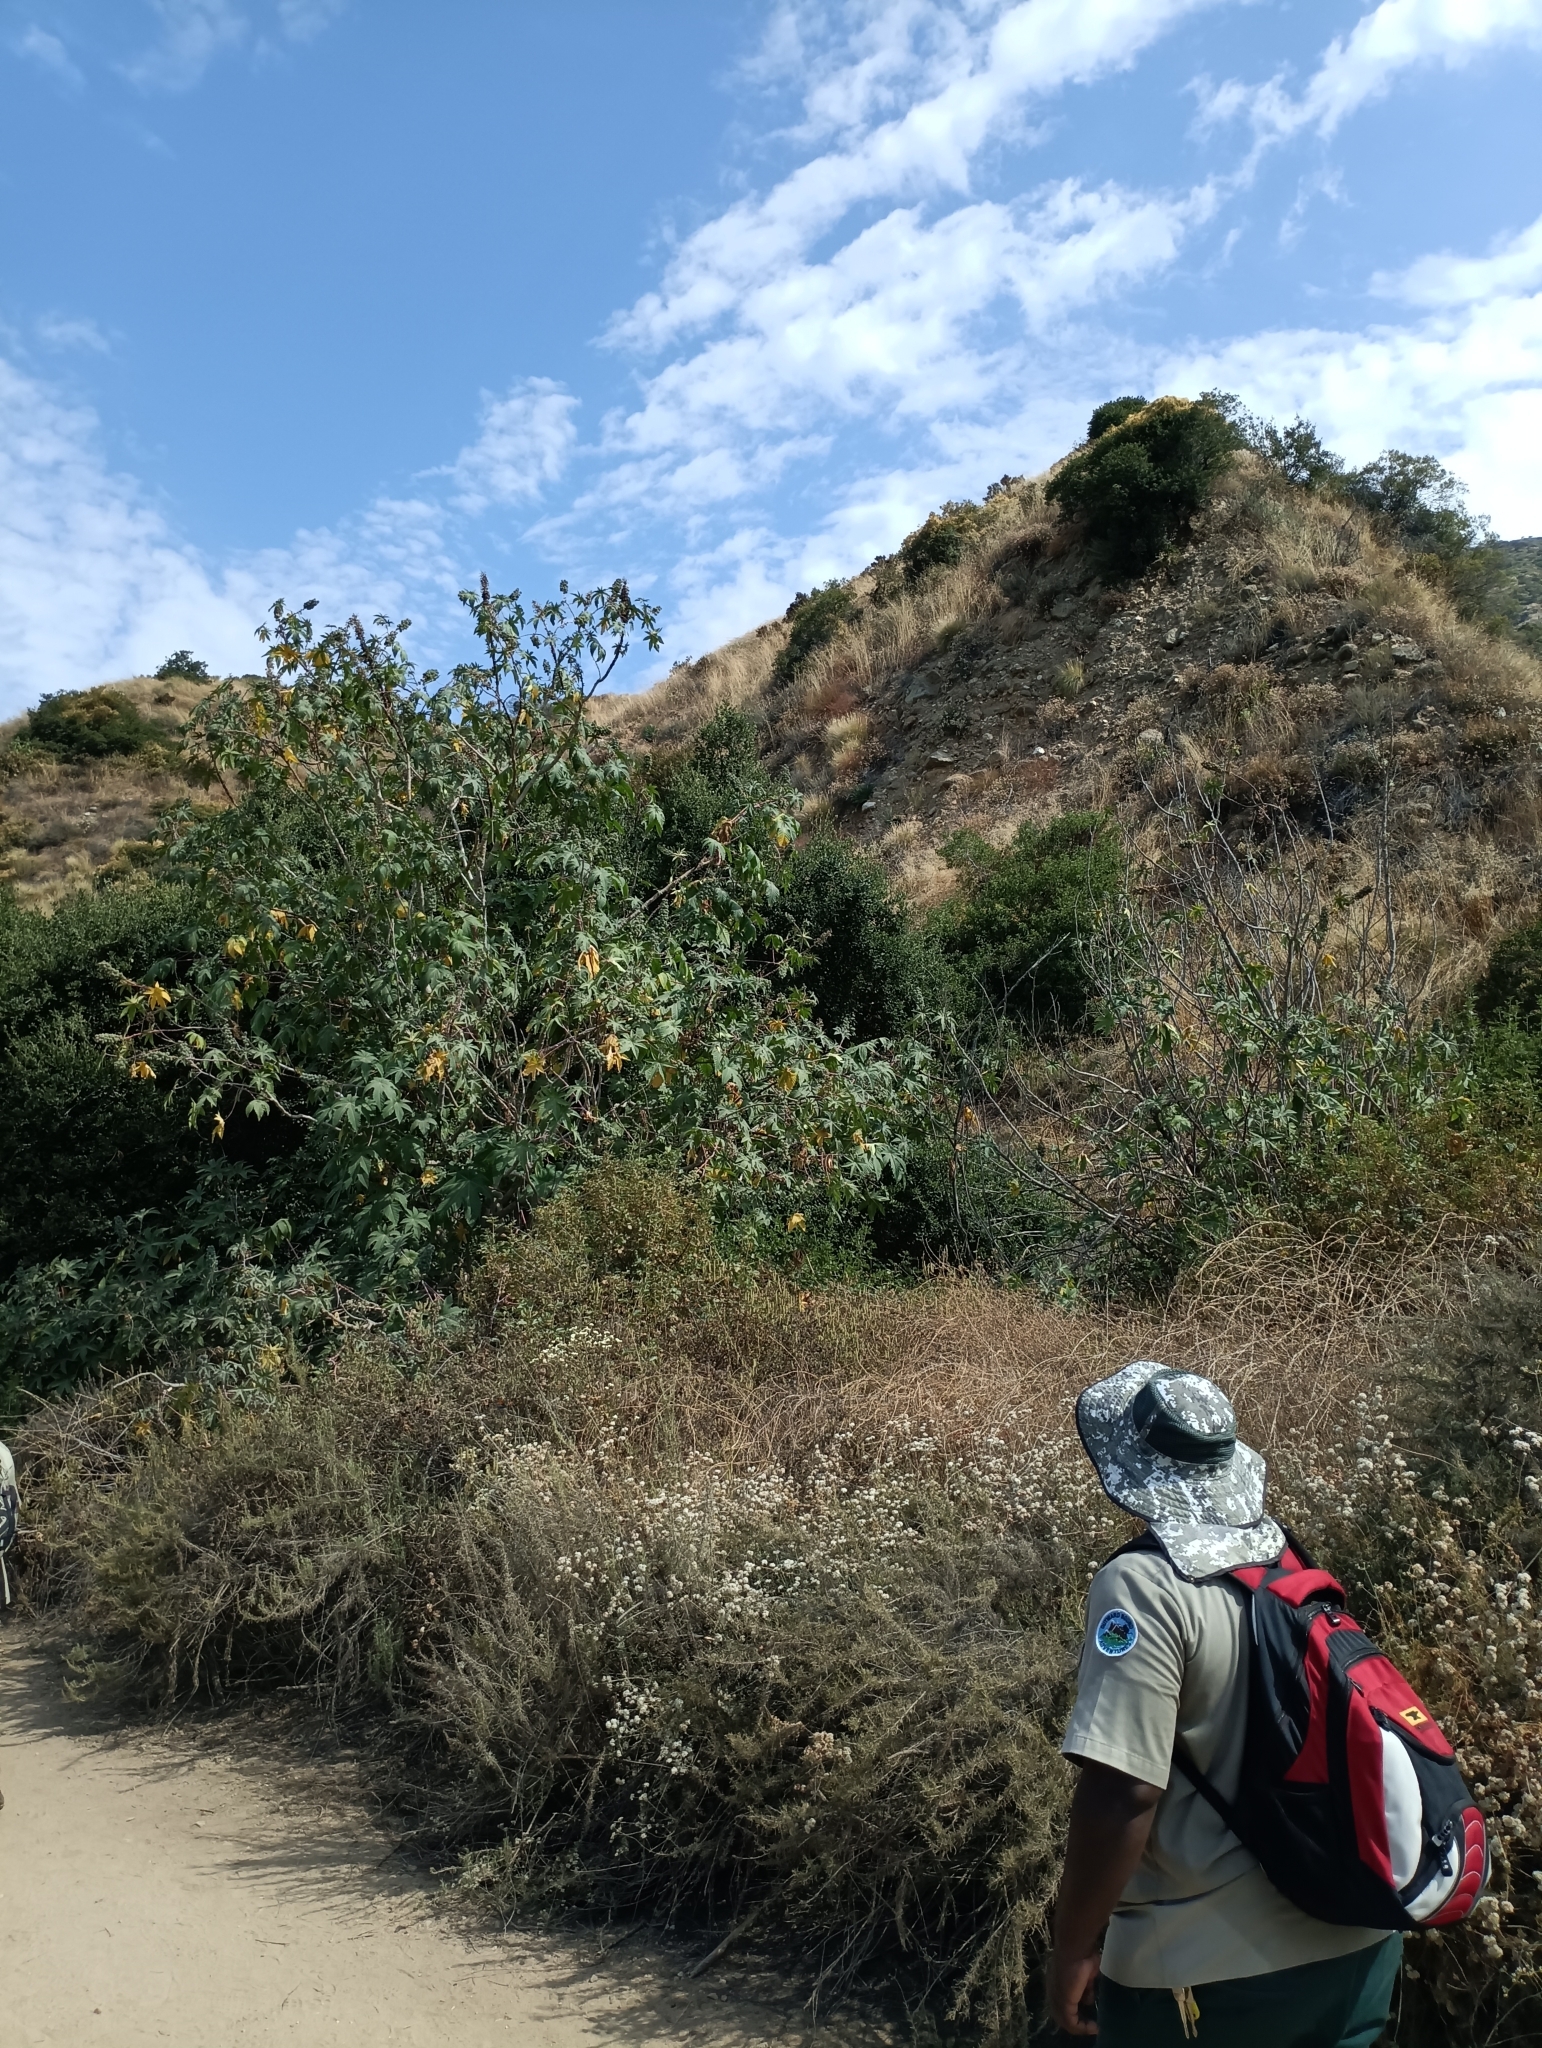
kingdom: Plantae
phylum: Tracheophyta
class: Magnoliopsida
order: Malpighiales
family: Euphorbiaceae
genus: Ricinus
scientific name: Ricinus communis
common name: Castor-oil-plant
